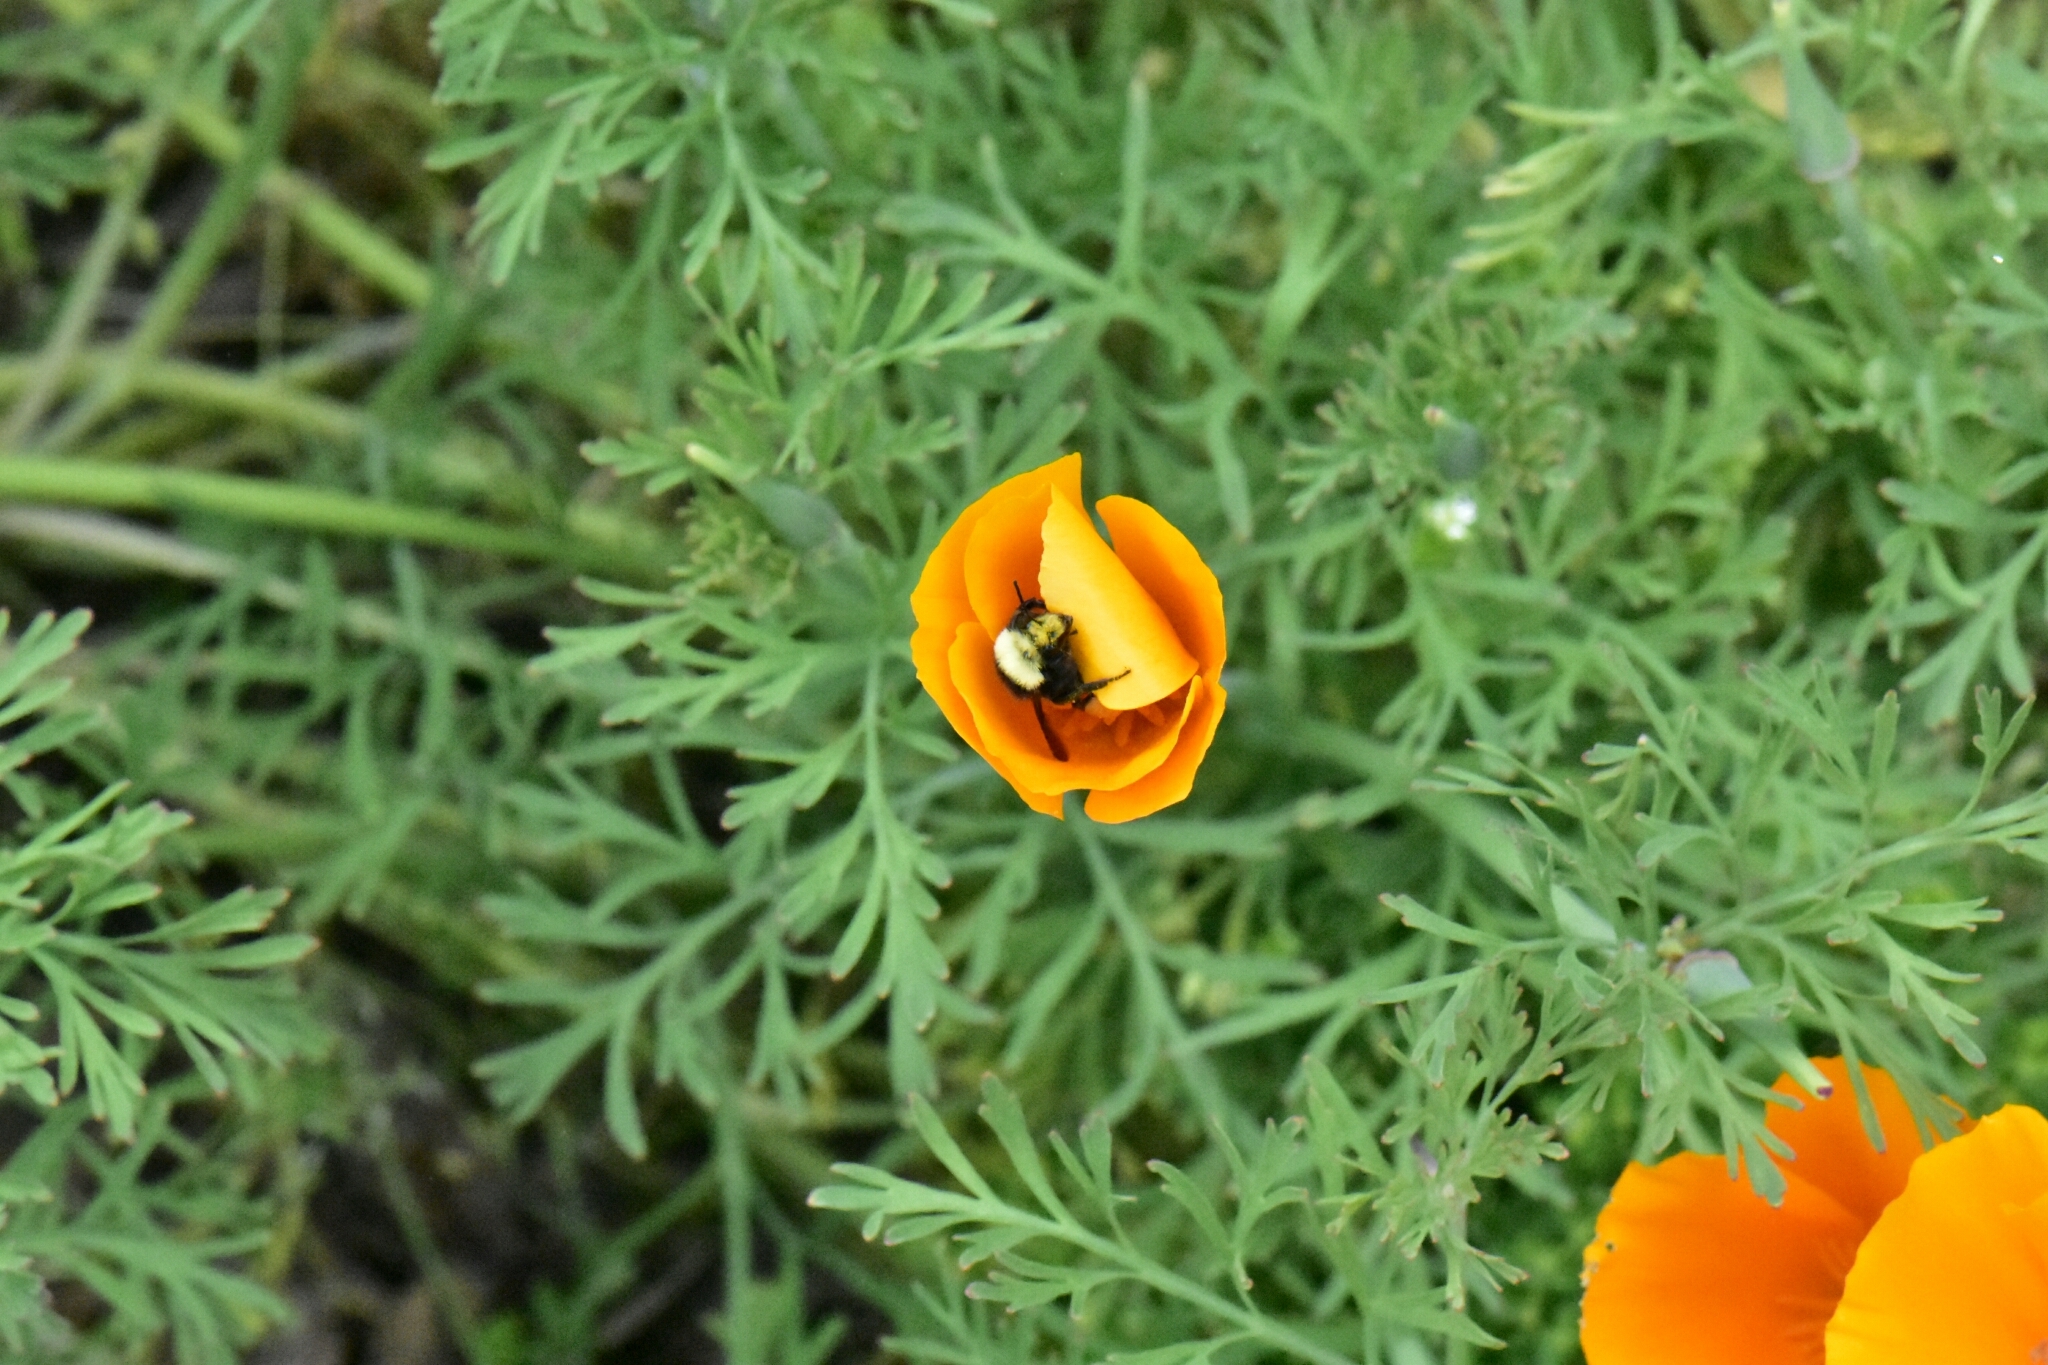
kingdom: Animalia
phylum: Arthropoda
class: Insecta
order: Hymenoptera
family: Apidae
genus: Bombus
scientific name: Bombus vosnesenskii
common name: Vosnesensky bumble bee
